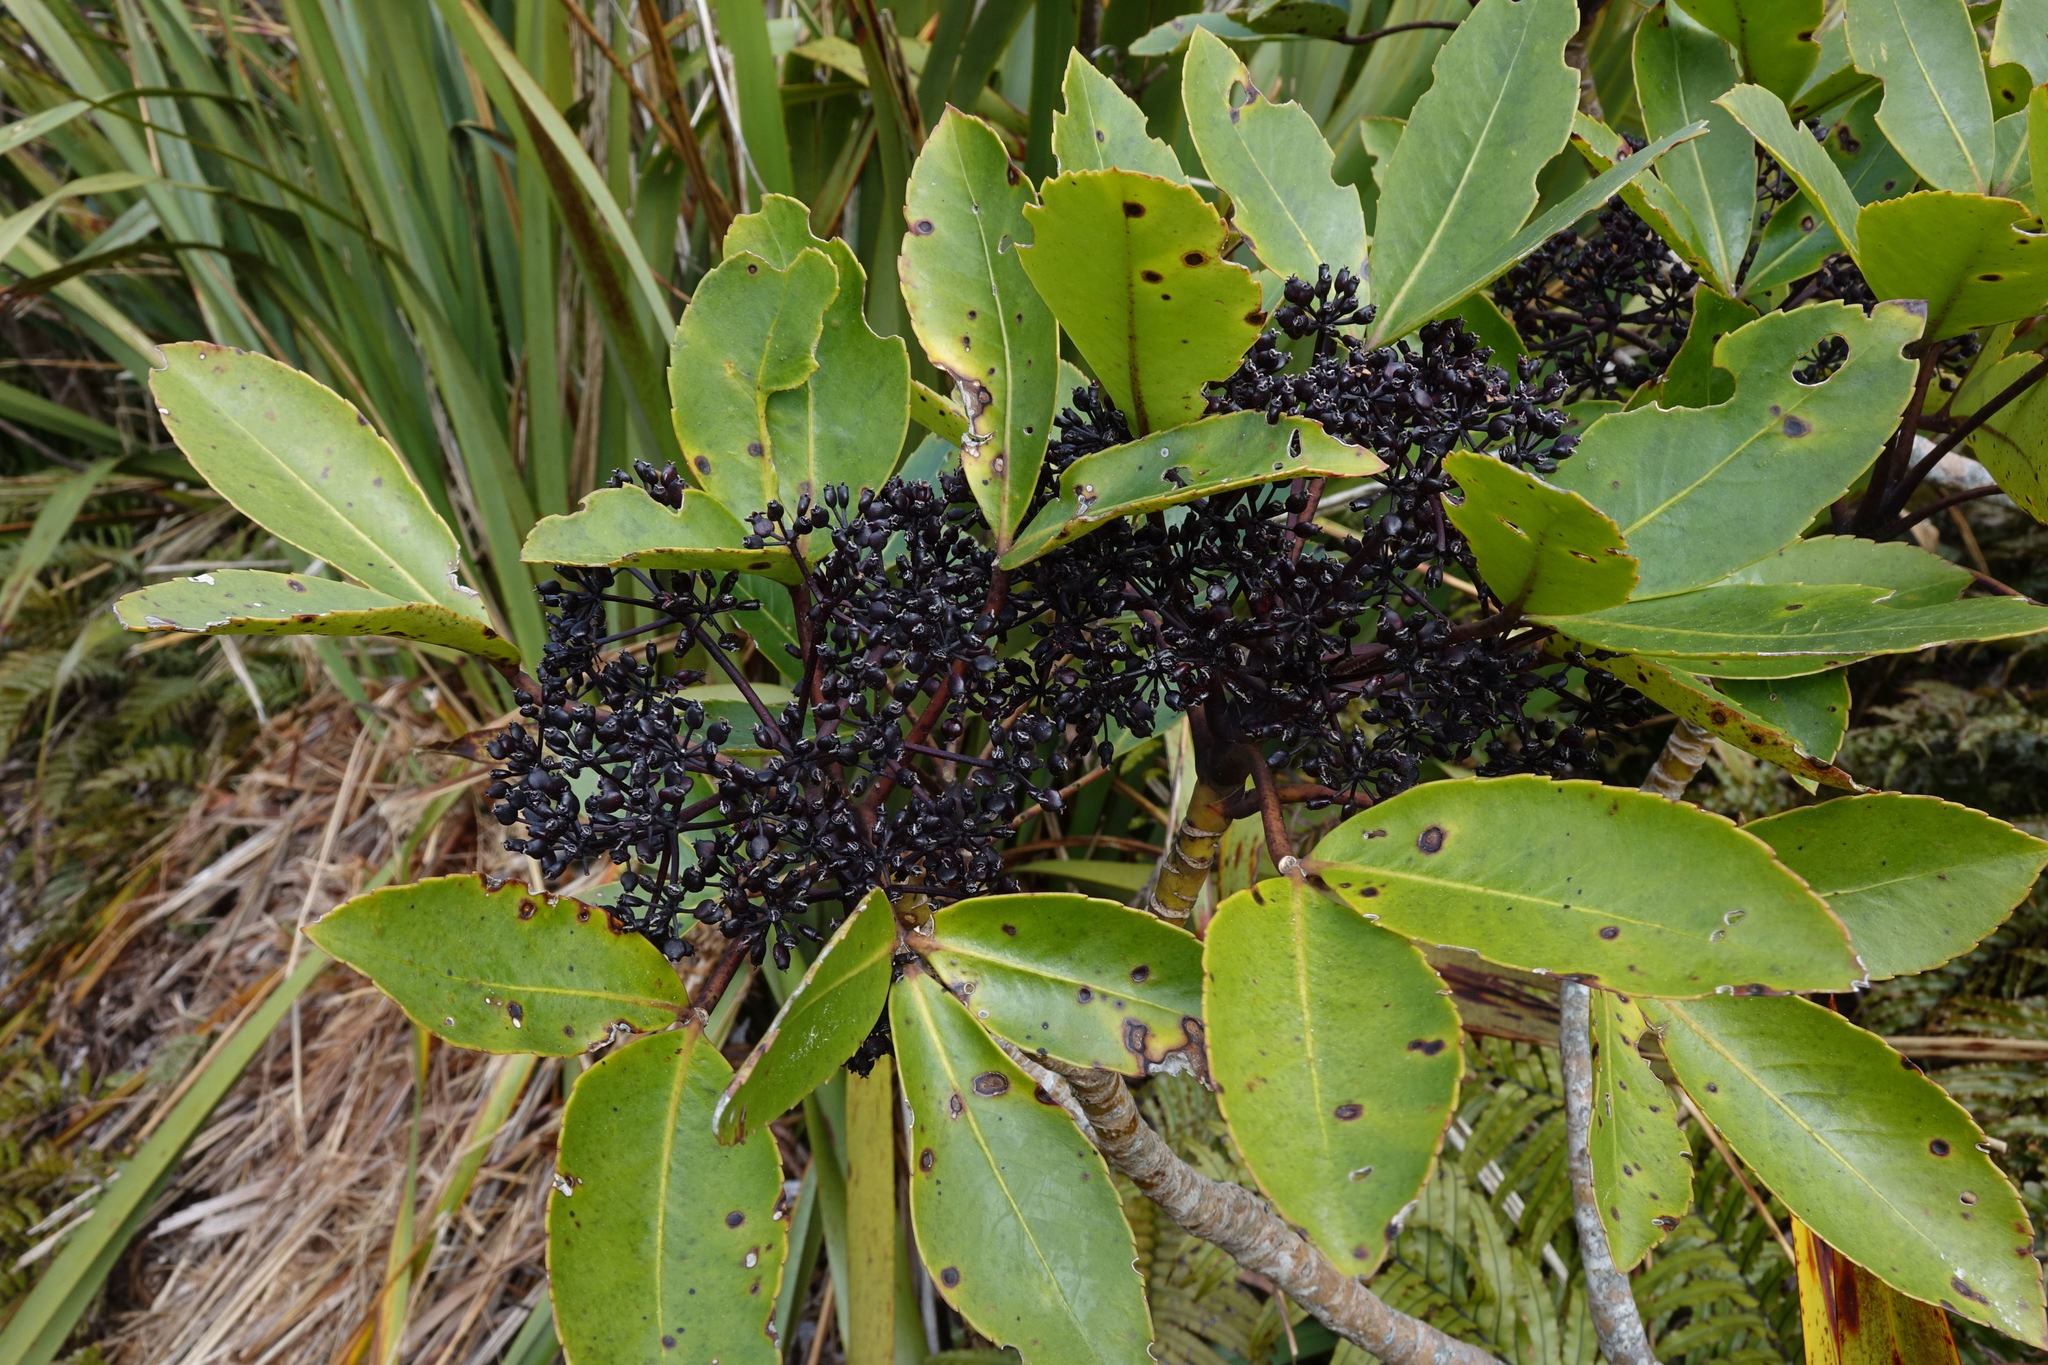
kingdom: Plantae
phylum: Tracheophyta
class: Magnoliopsida
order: Apiales
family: Araliaceae
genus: Neopanax
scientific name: Neopanax colensoi
